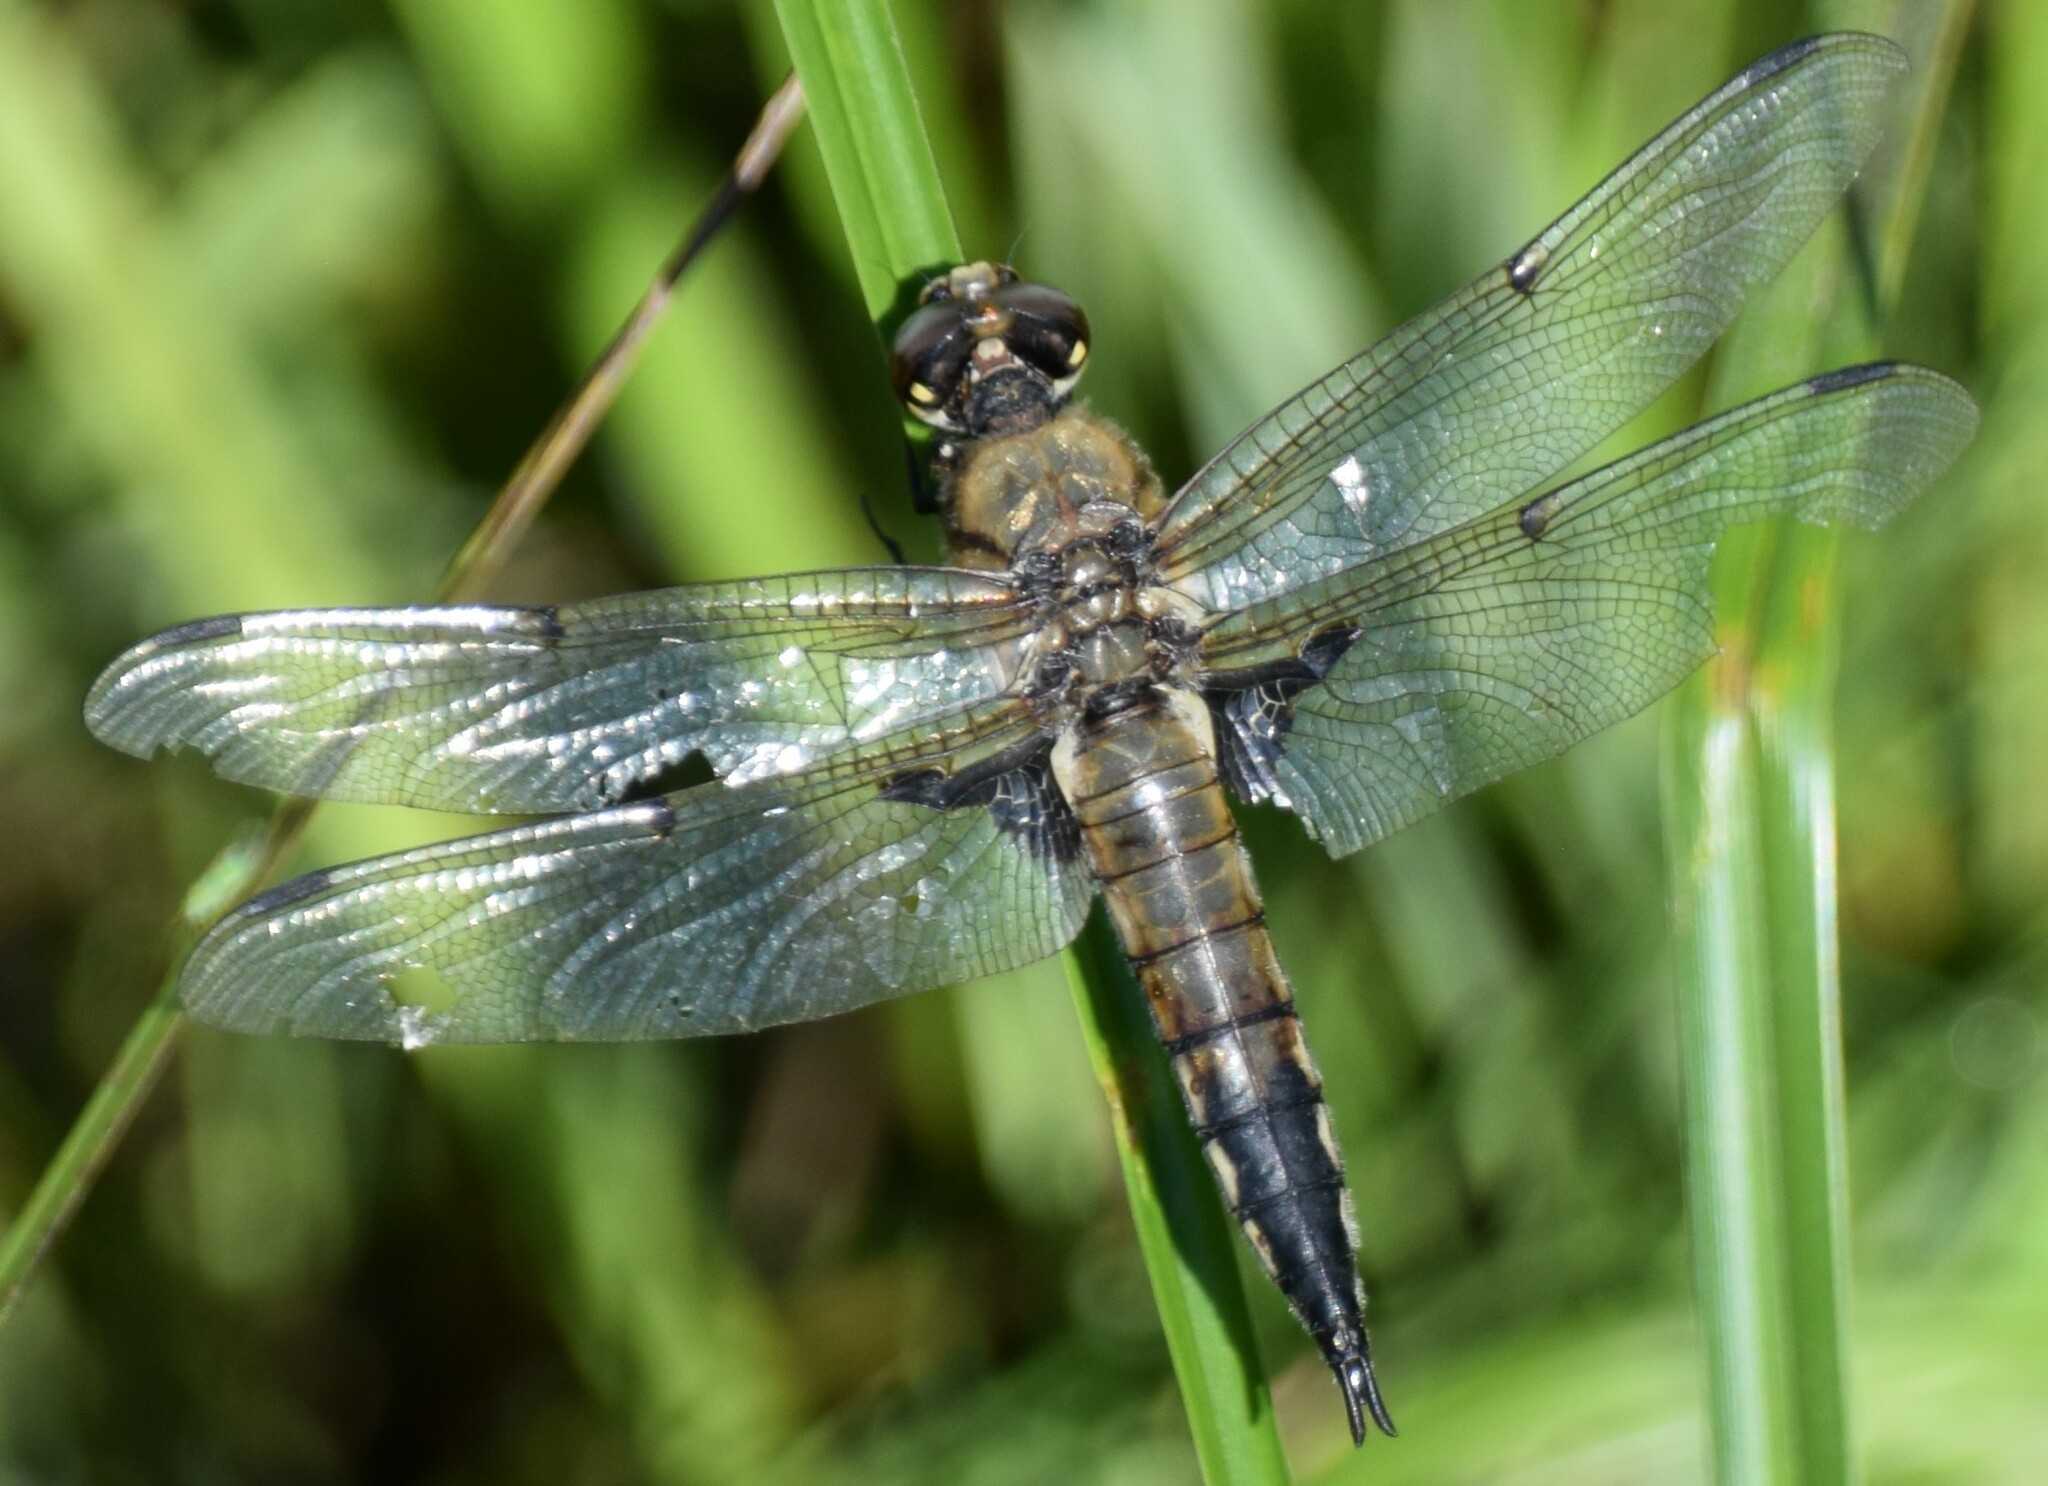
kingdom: Animalia
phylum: Arthropoda
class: Insecta
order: Odonata
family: Libellulidae
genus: Libellula
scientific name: Libellula quadrimaculata
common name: Four-spotted chaser
